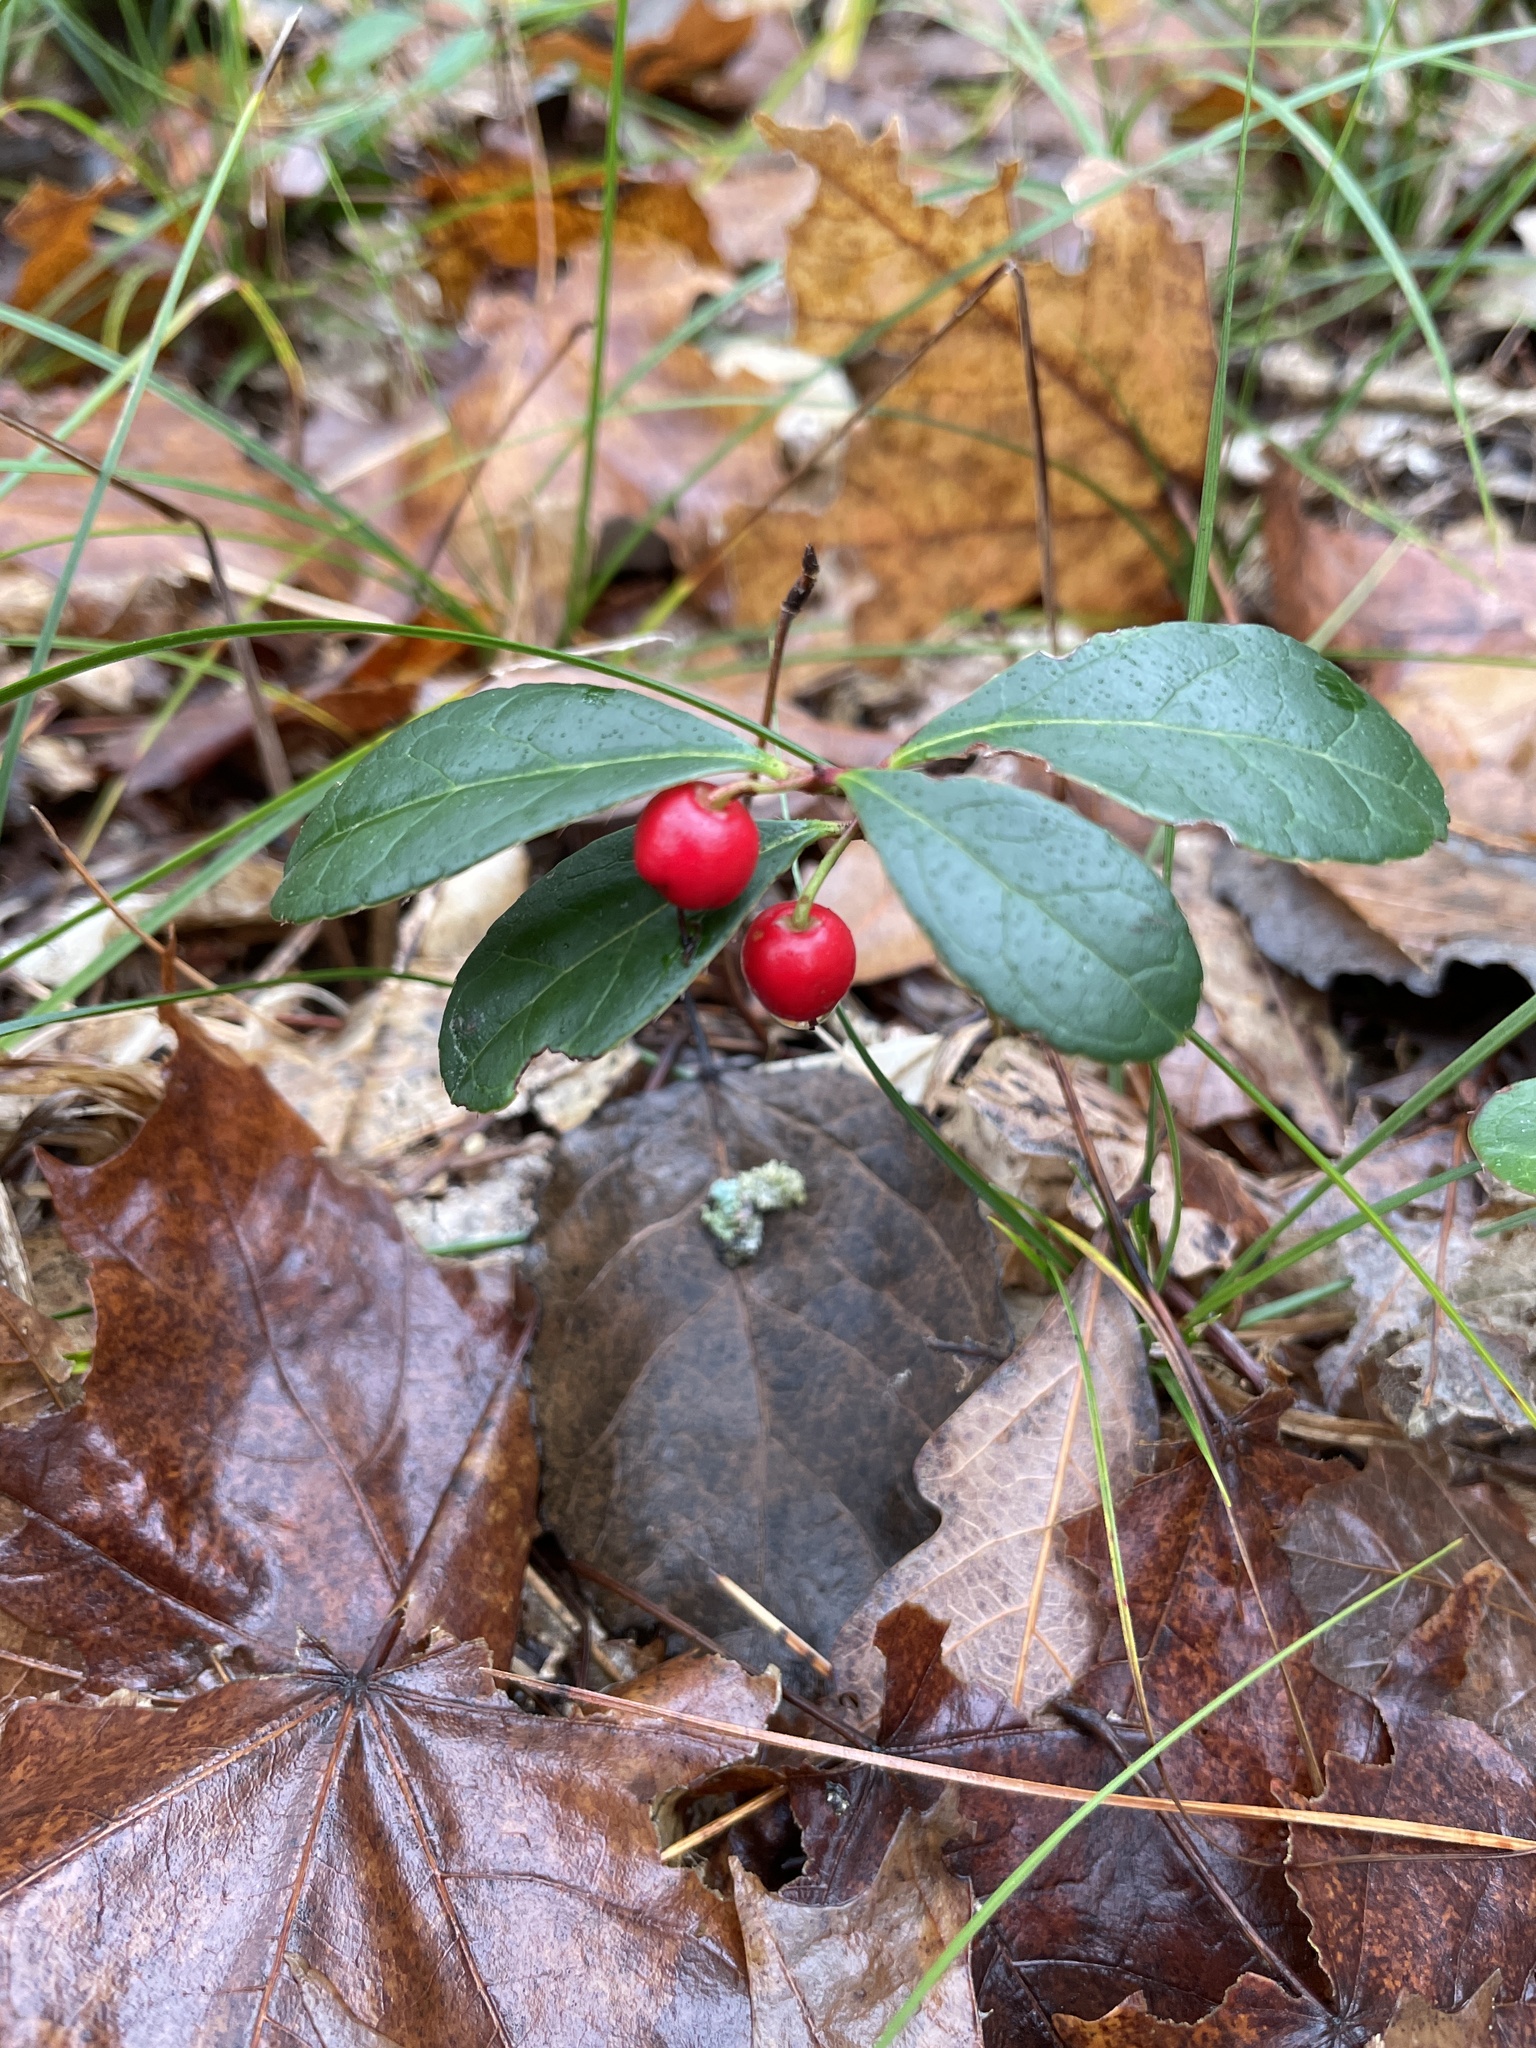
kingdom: Plantae
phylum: Tracheophyta
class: Magnoliopsida
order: Ericales
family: Ericaceae
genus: Gaultheria
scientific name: Gaultheria procumbens
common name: Checkerberry
